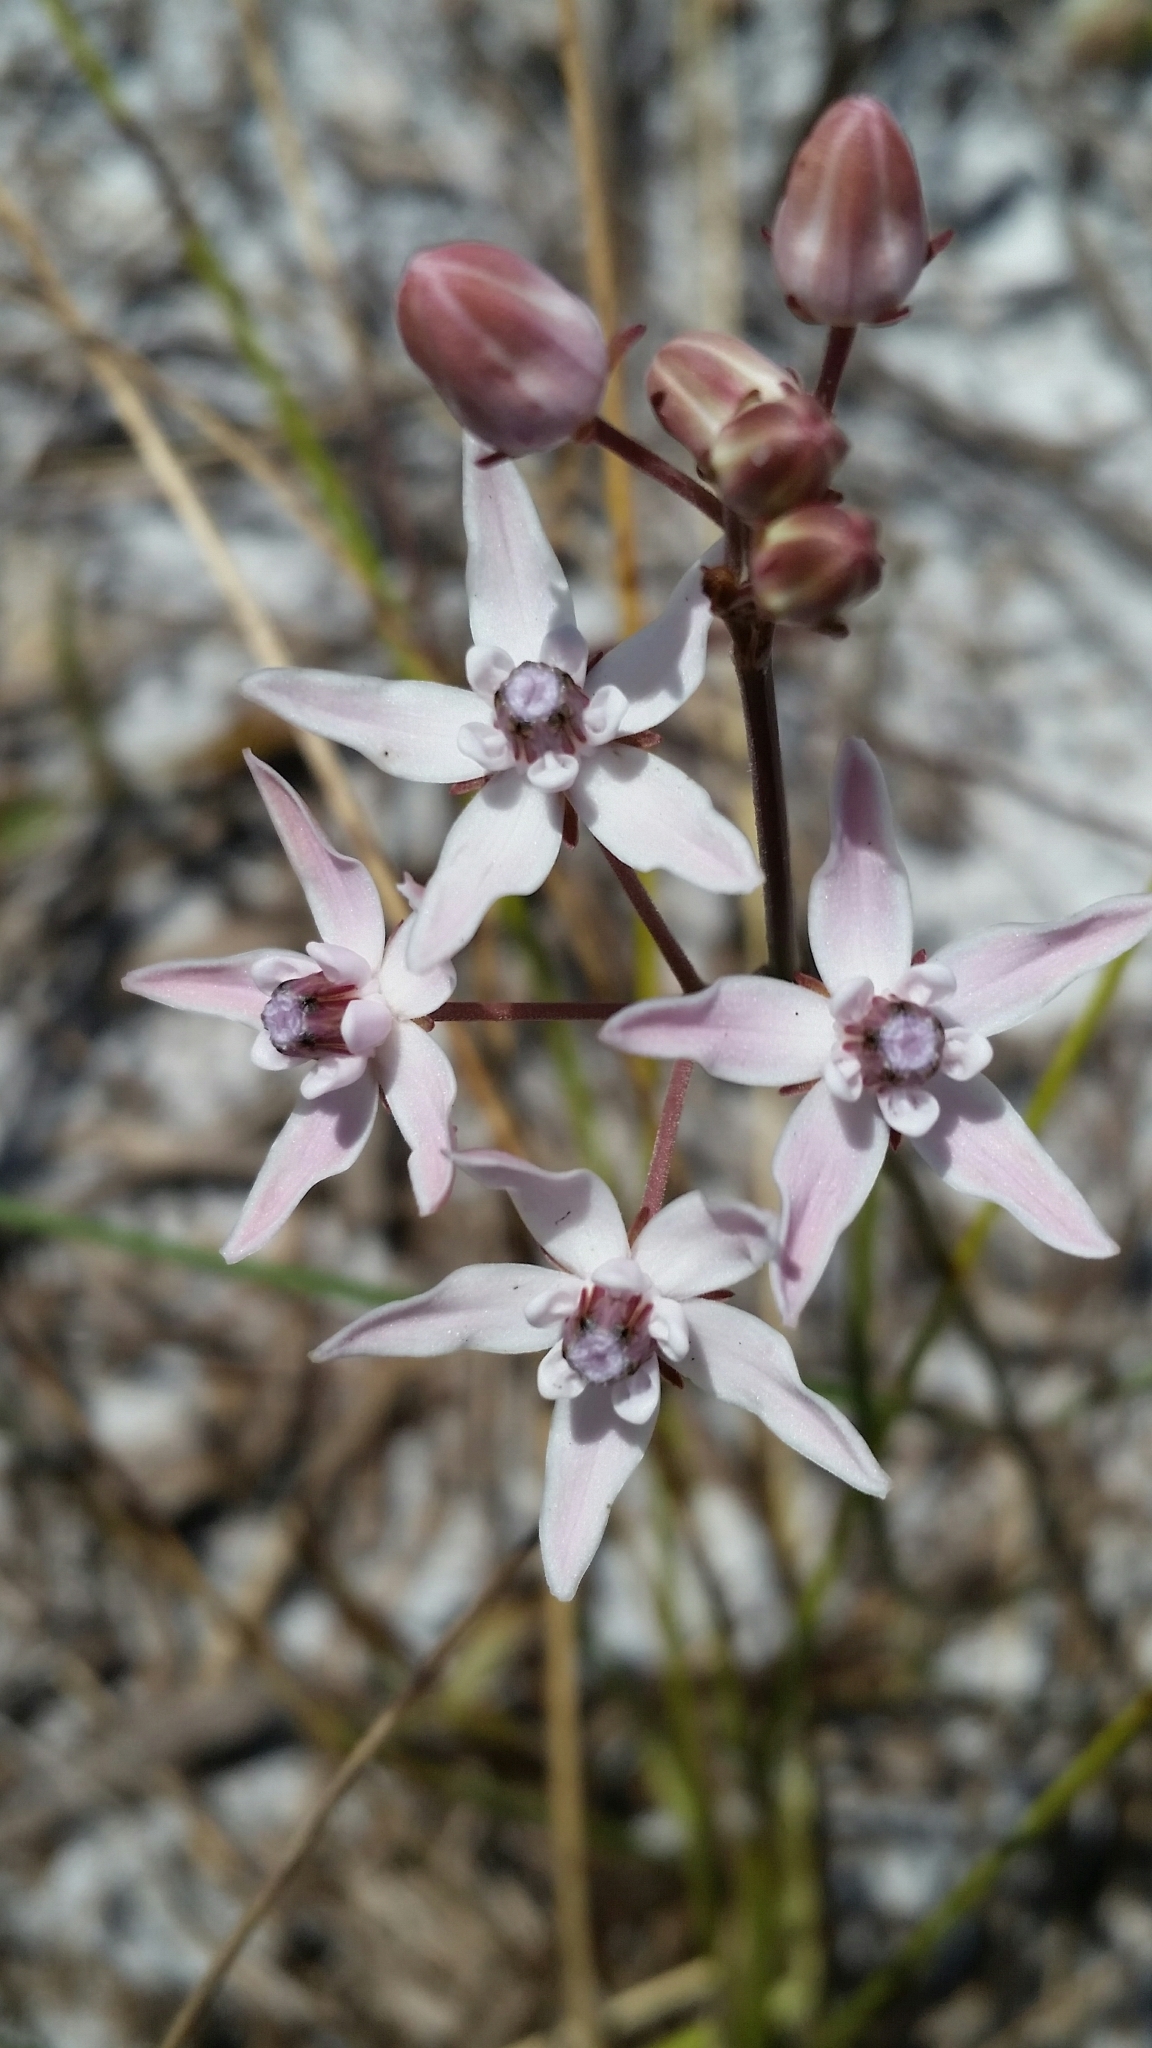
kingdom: Plantae
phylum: Tracheophyta
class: Magnoliopsida
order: Gentianales
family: Apocynaceae
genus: Asclepias
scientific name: Asclepias feayi
